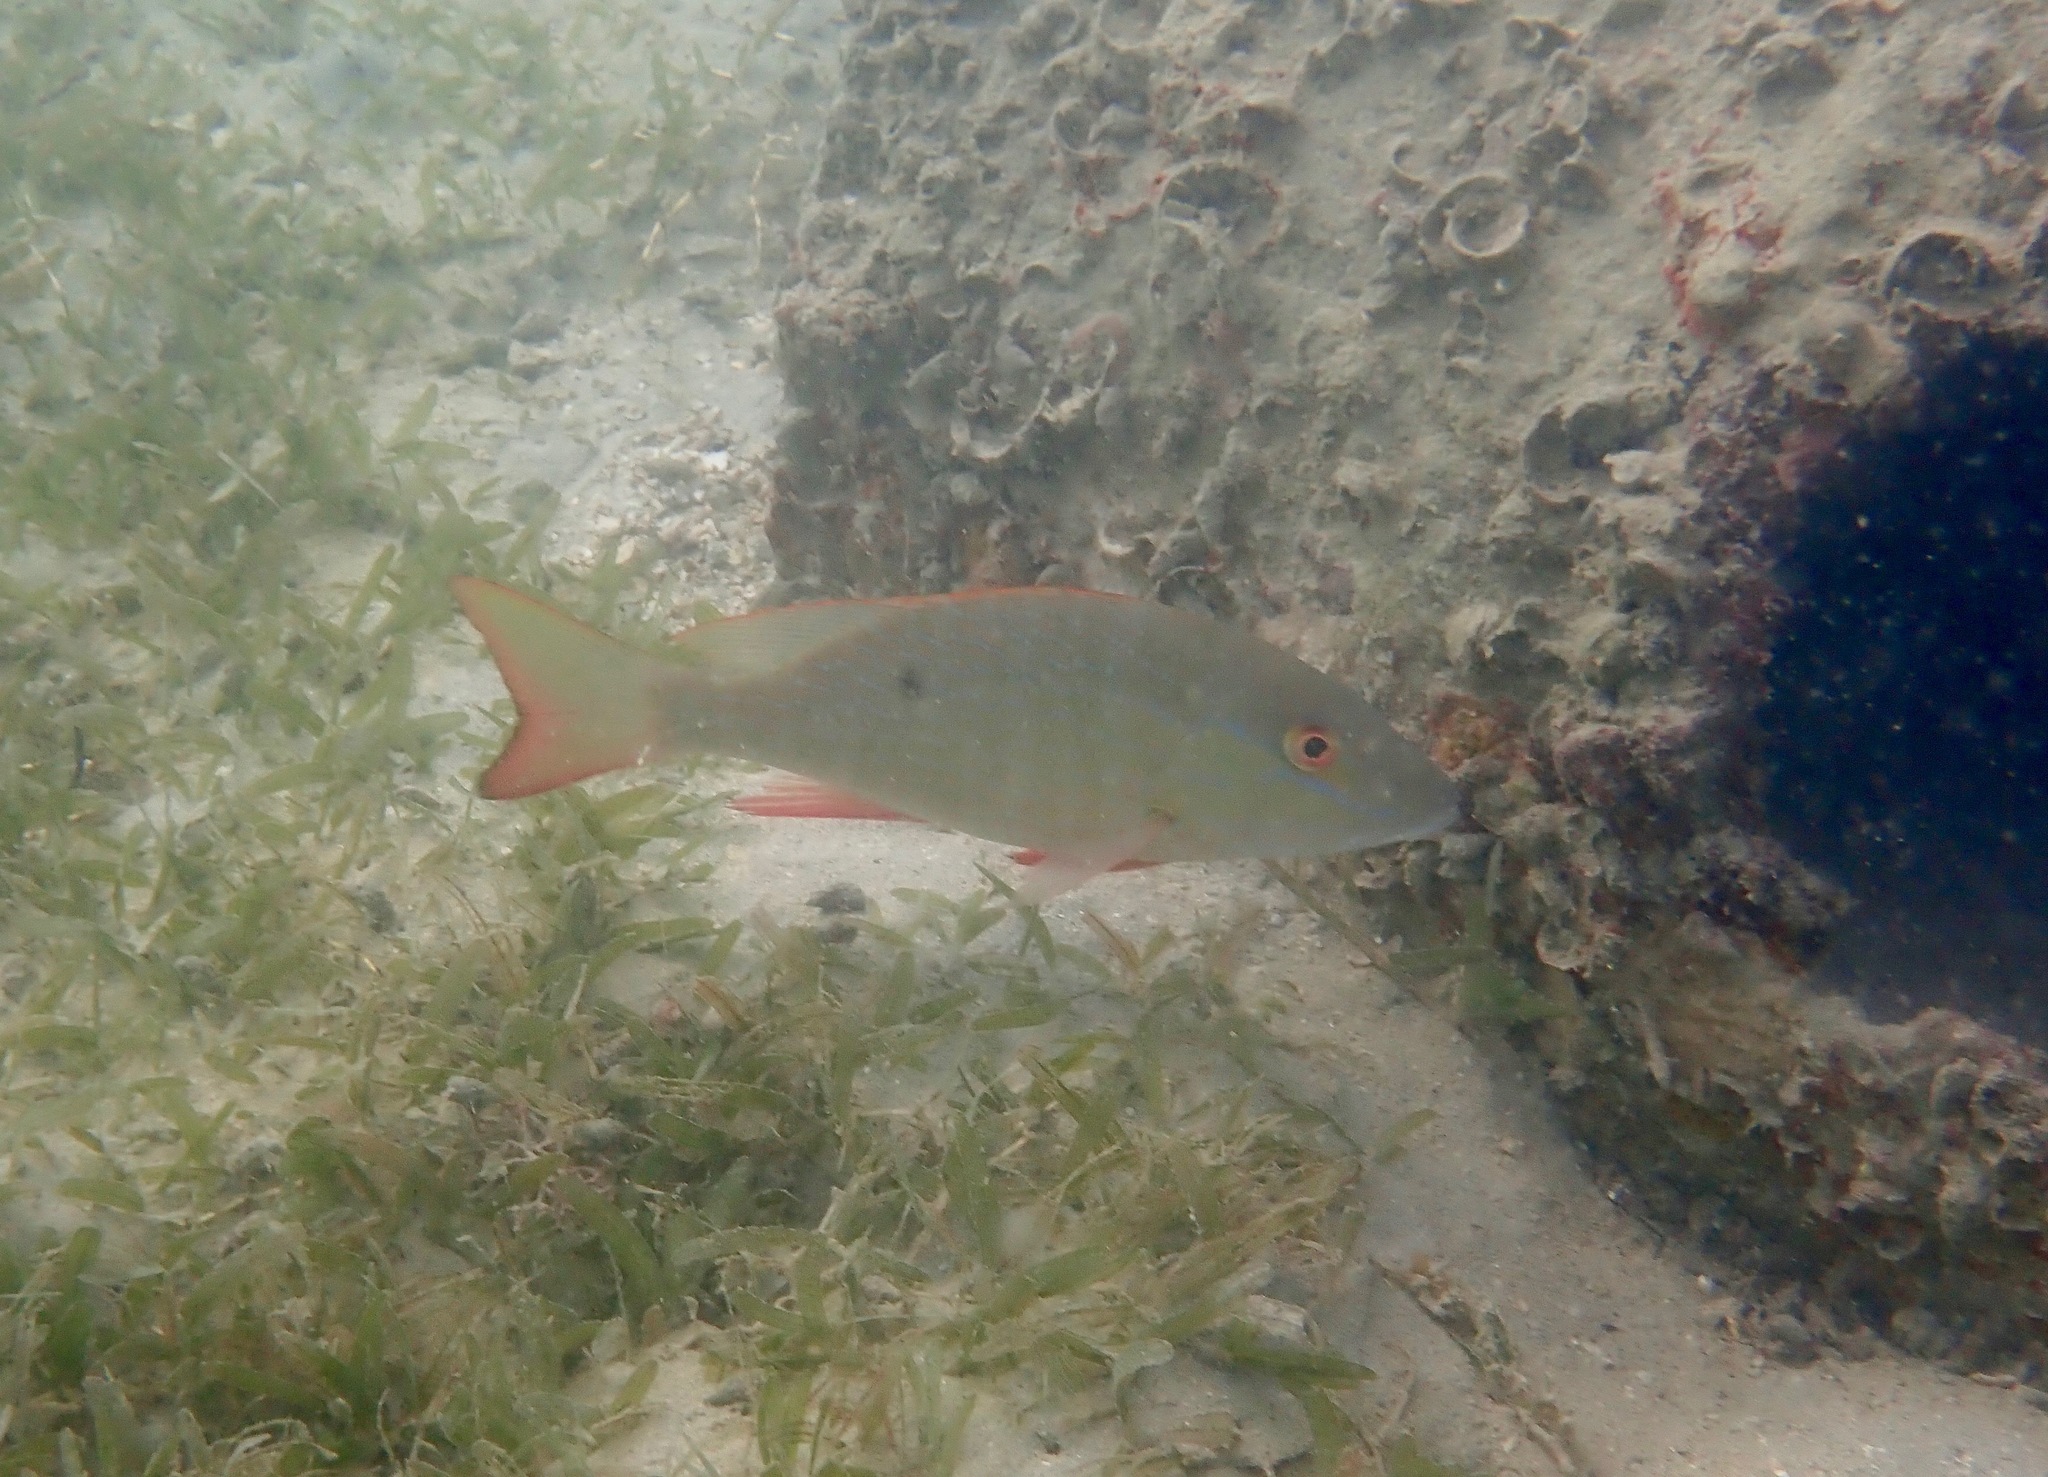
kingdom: Animalia
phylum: Chordata
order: Perciformes
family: Lutjanidae
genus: Lutjanus
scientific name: Lutjanus analis
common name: Mutton snapper
